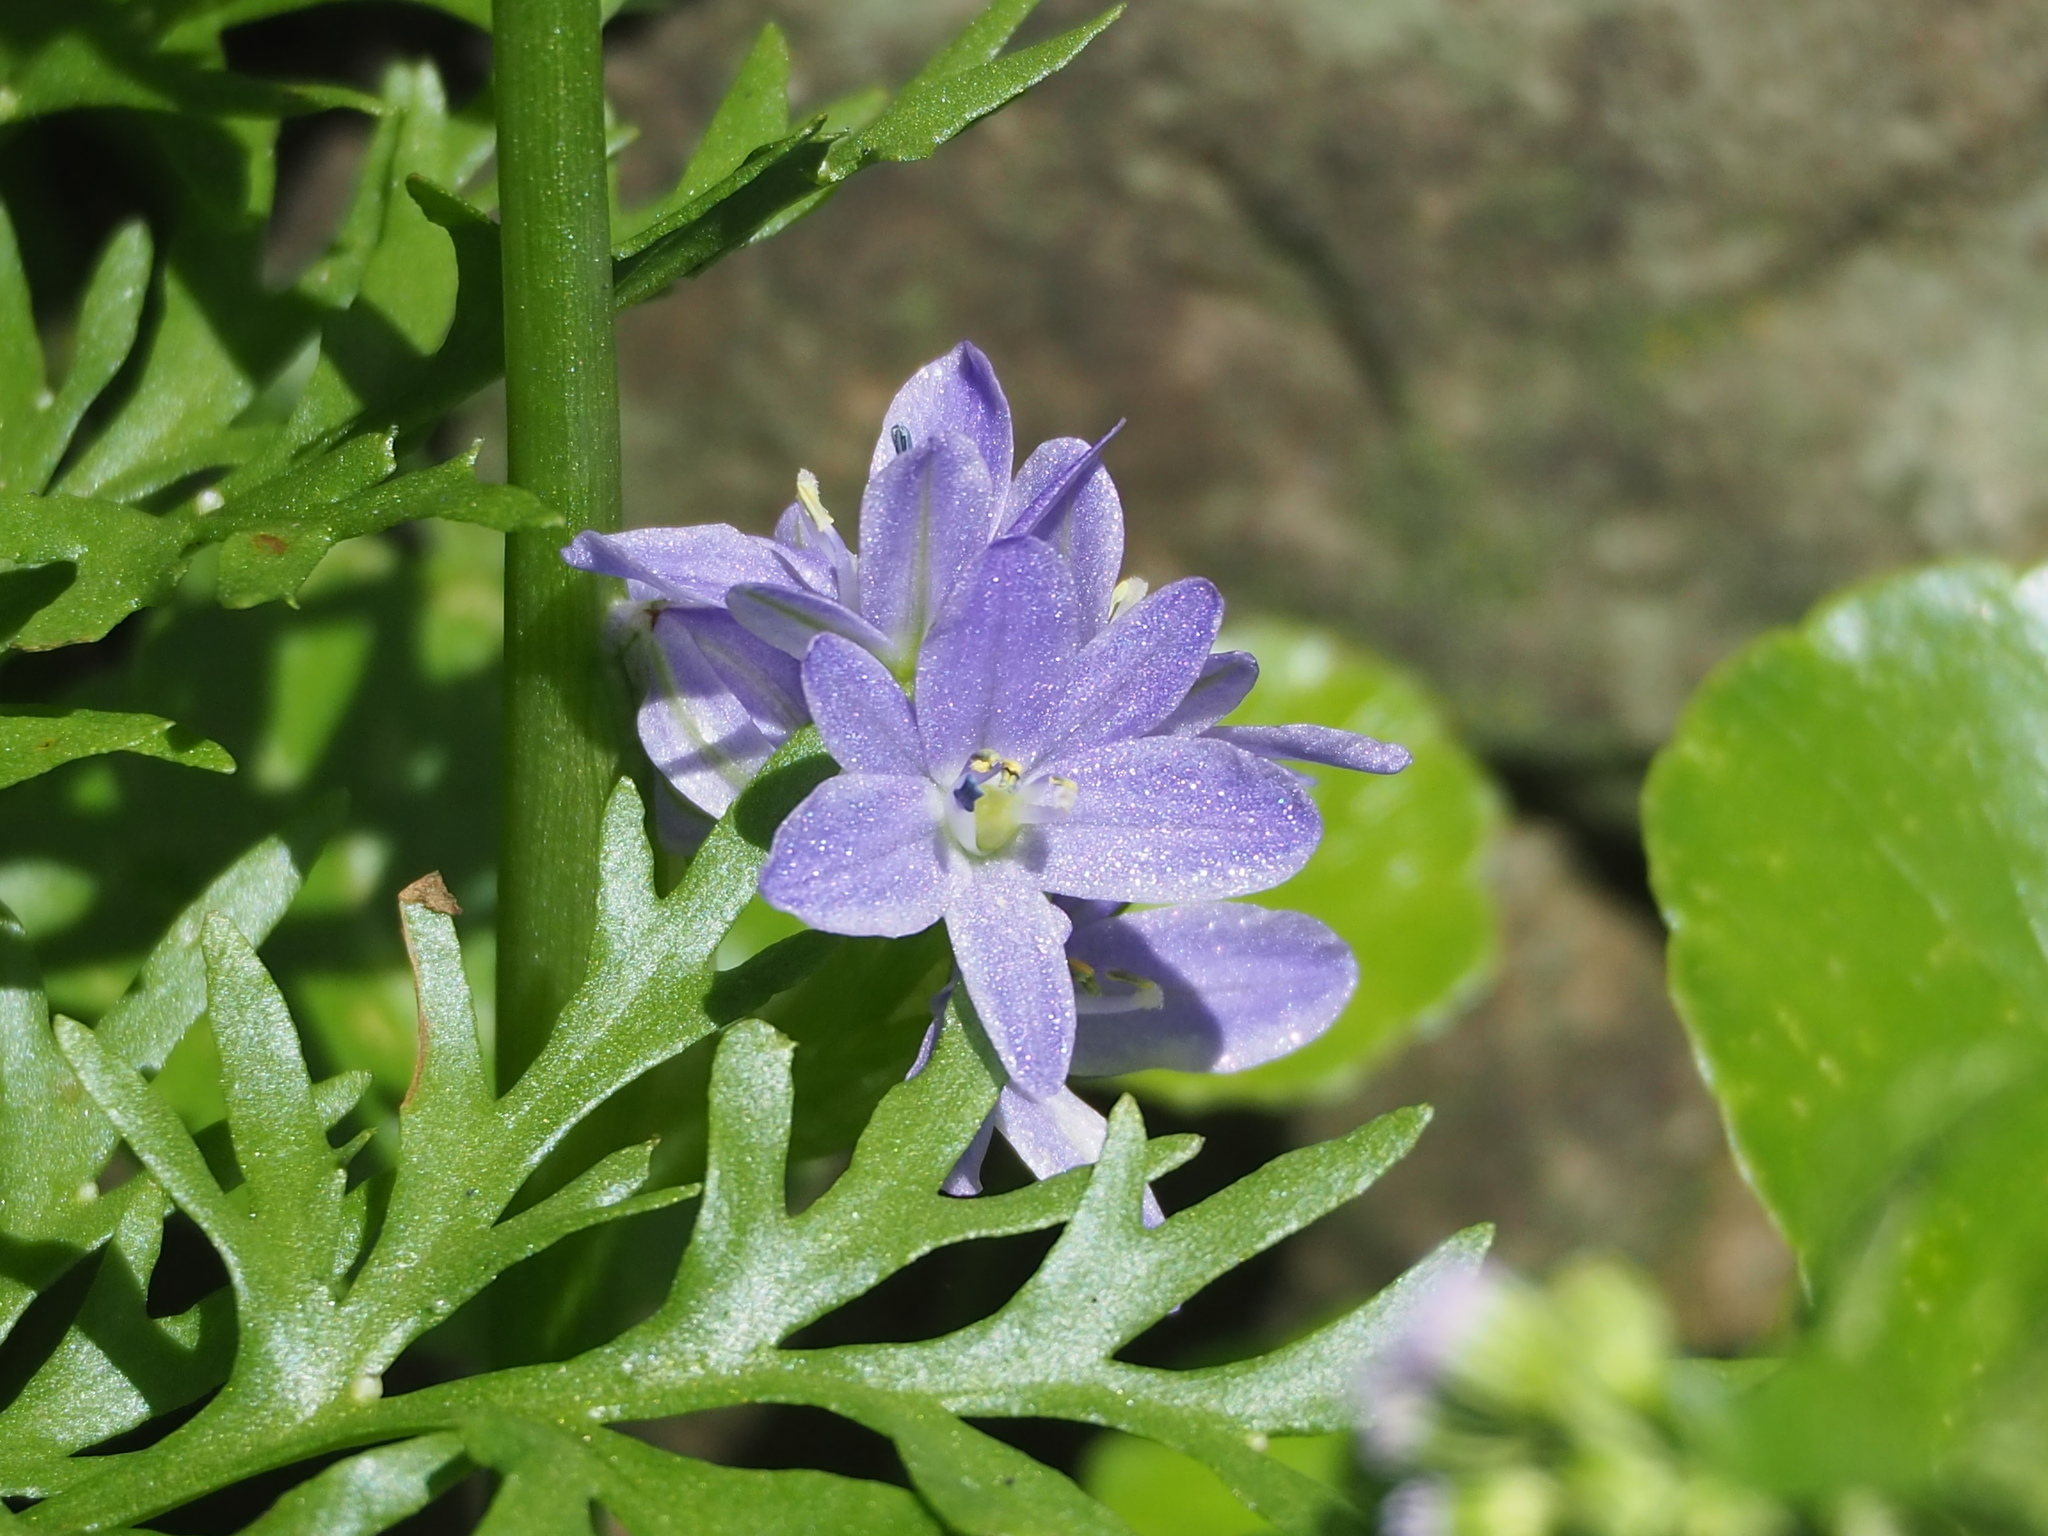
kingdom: Plantae
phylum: Tracheophyta
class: Liliopsida
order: Commelinales
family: Pontederiaceae
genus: Pontederia
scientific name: Pontederia vaginalis
